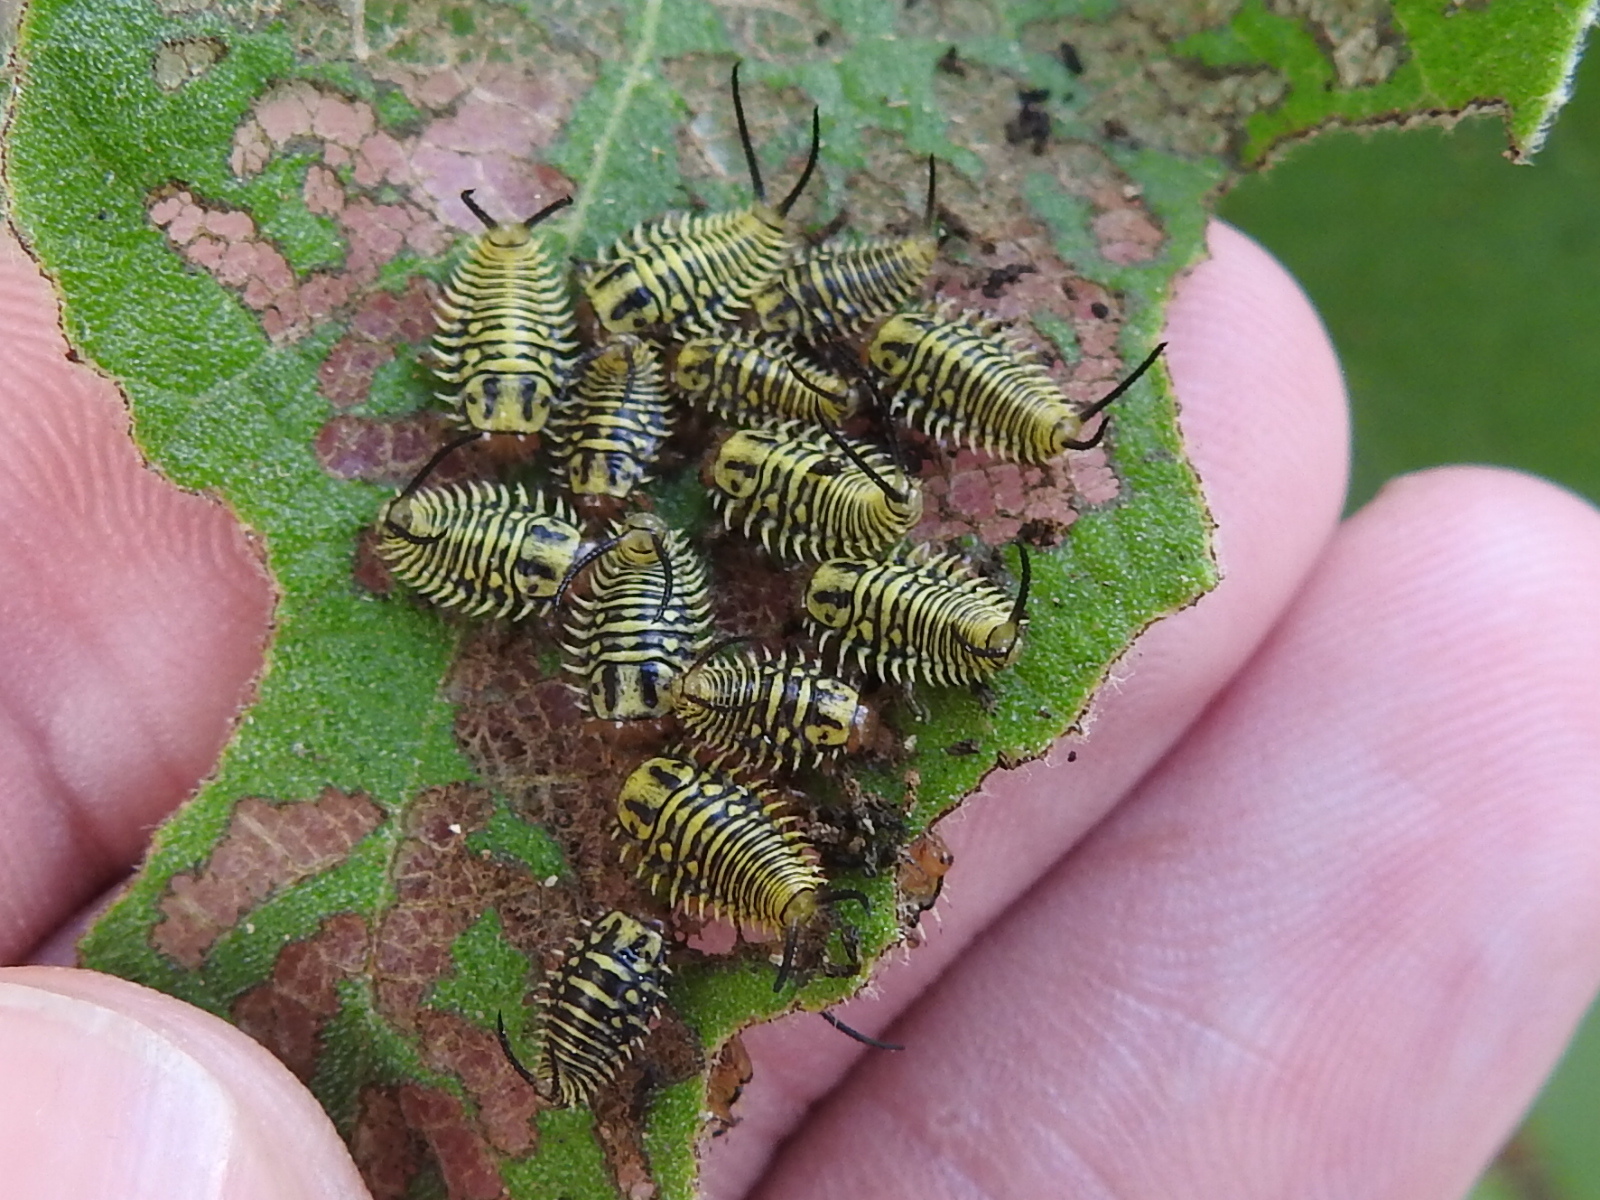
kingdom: Animalia
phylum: Arthropoda
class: Insecta
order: Coleoptera
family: Chrysomelidae
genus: Physonota
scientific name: Physonota alutacea
